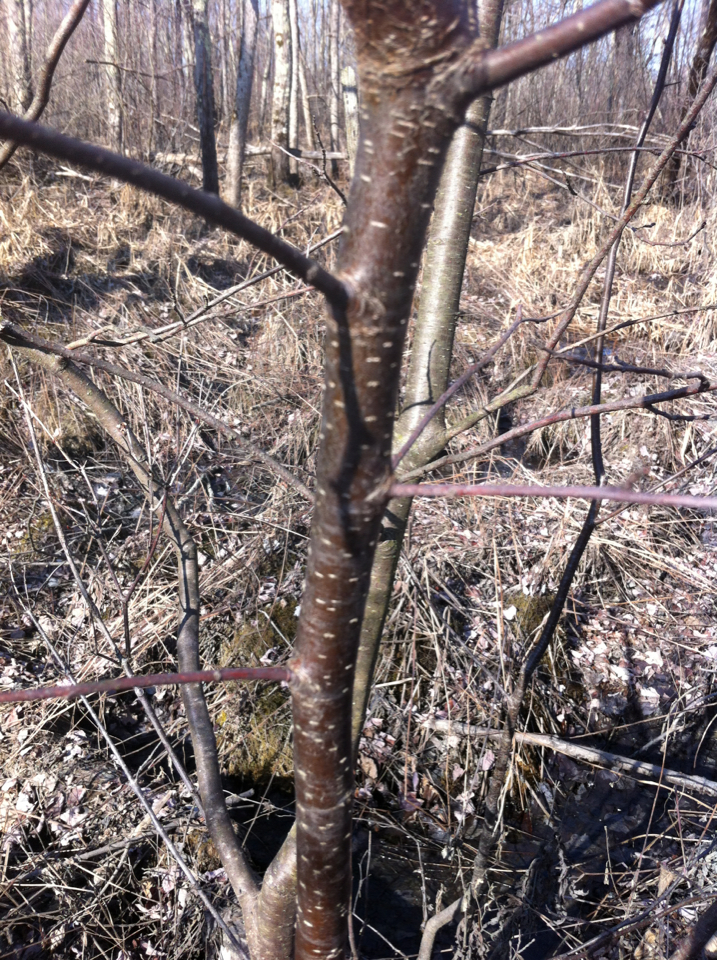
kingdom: Plantae
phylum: Tracheophyta
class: Magnoliopsida
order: Fagales
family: Betulaceae
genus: Alnus
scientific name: Alnus incana
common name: Grey alder
